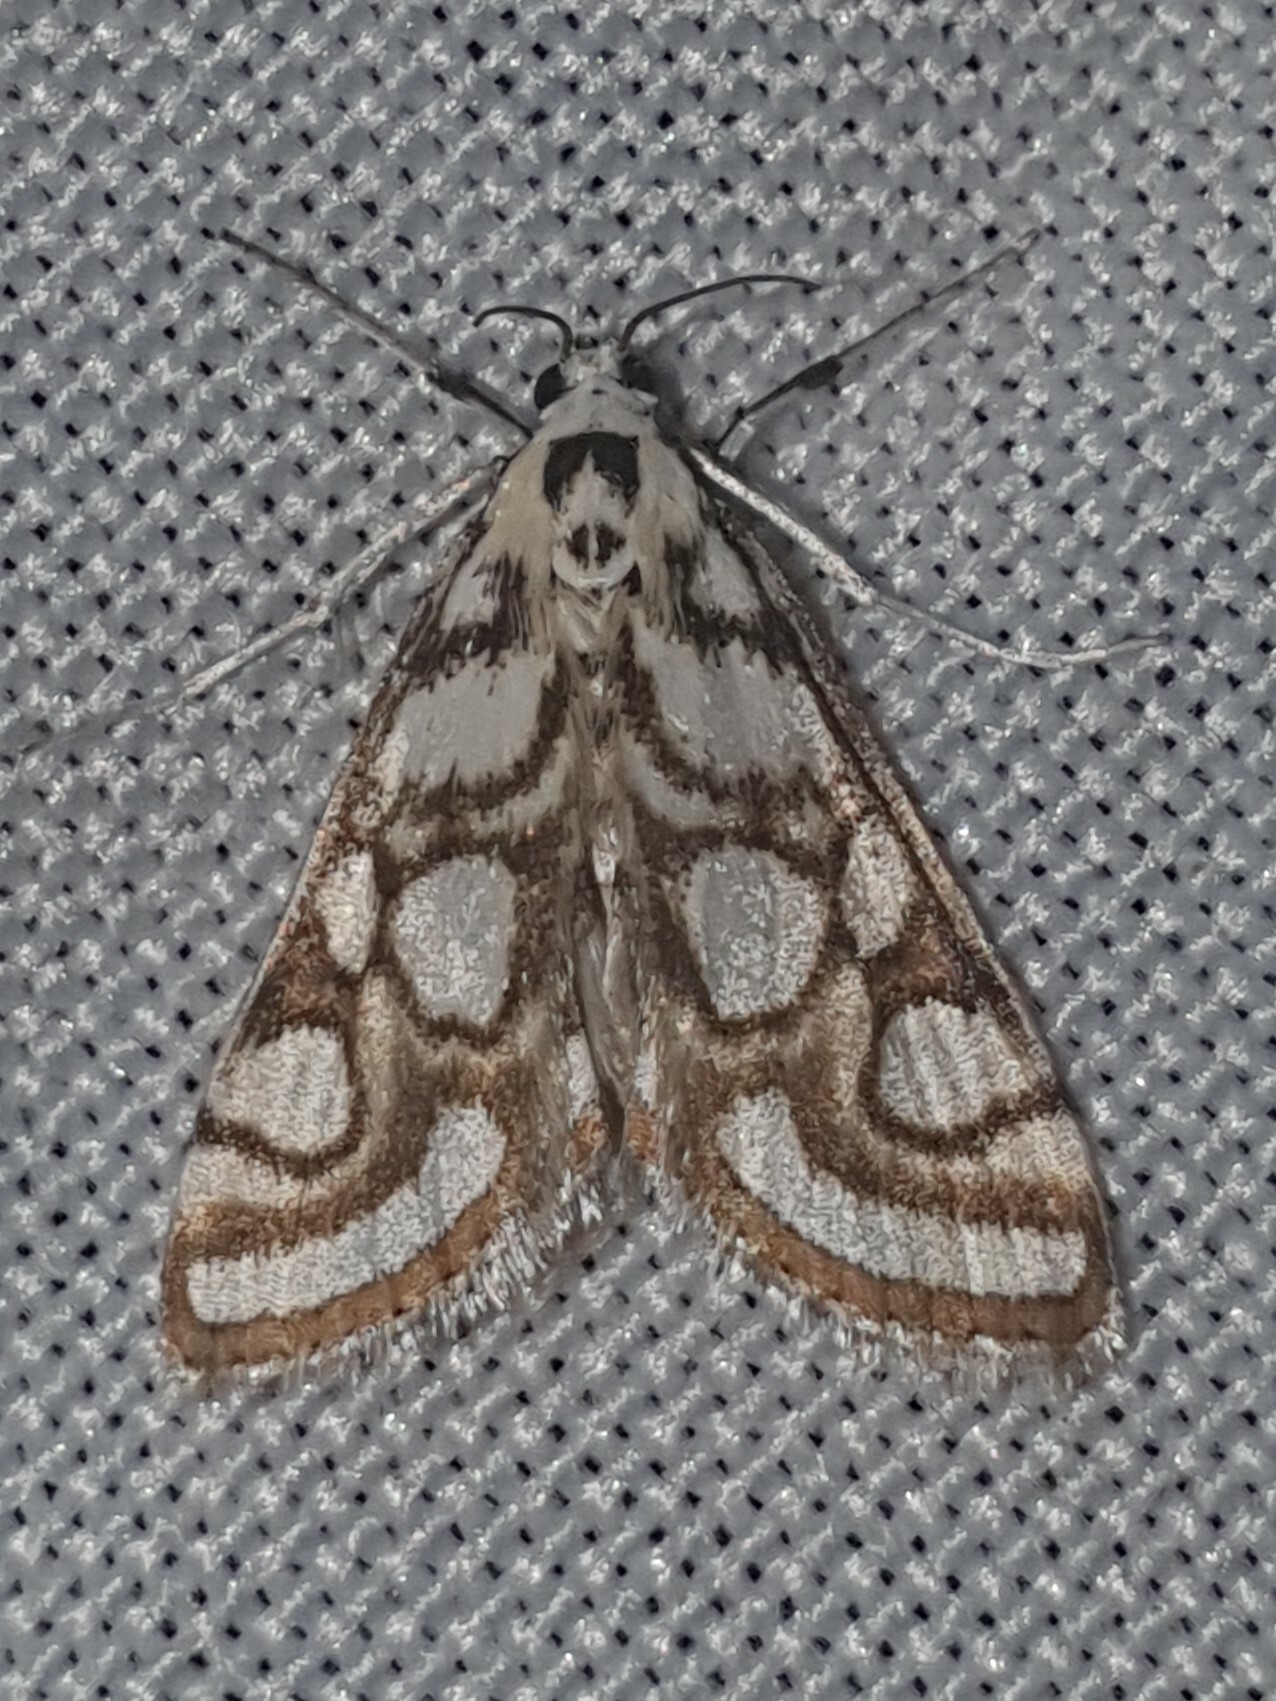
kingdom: Animalia
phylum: Arthropoda
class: Insecta
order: Lepidoptera
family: Crambidae
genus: Nymphula
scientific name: Nymphula nitidulata
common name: Beautiful china mark
